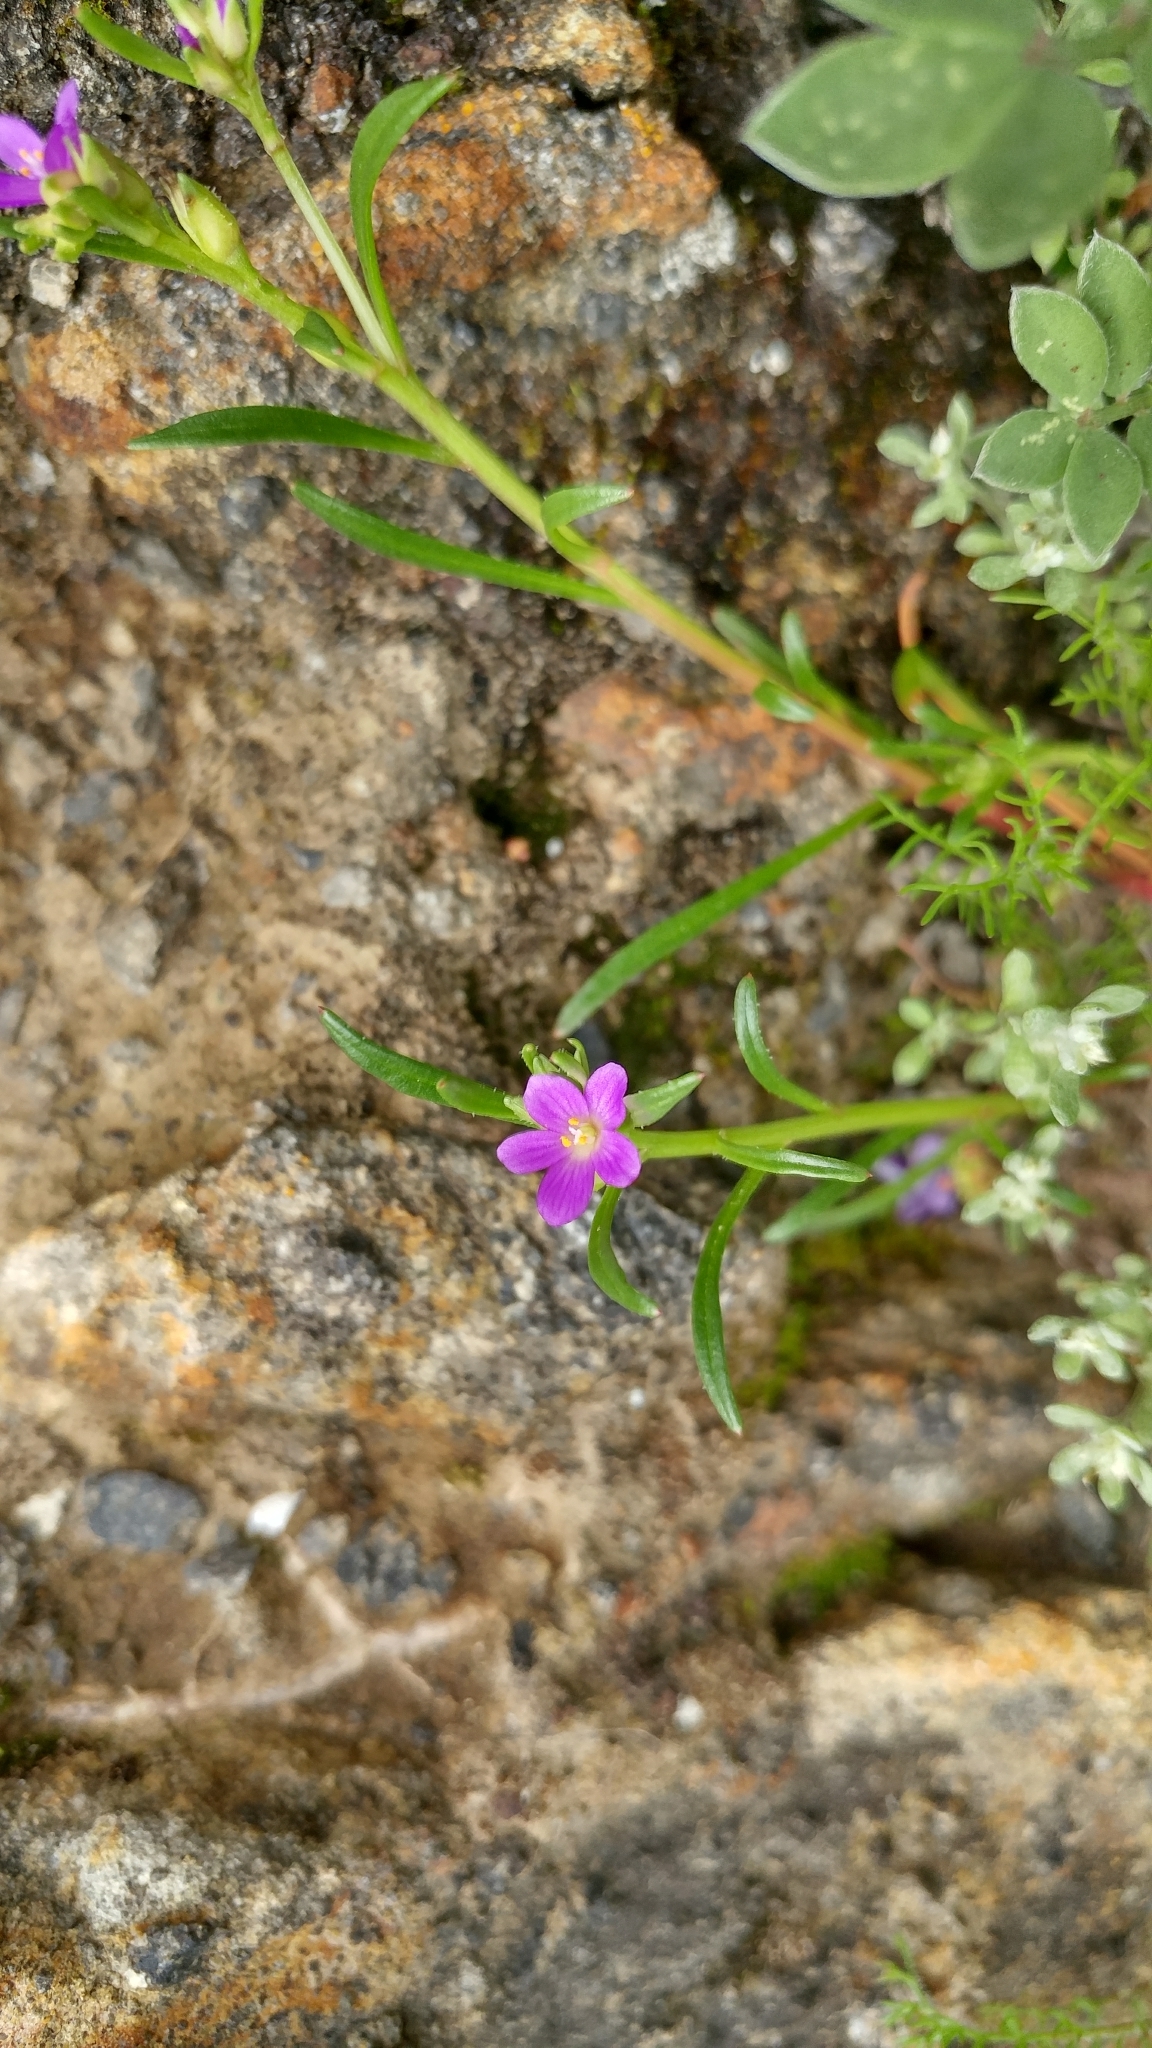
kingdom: Plantae
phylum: Tracheophyta
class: Magnoliopsida
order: Caryophyllales
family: Montiaceae
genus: Calandrinia
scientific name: Calandrinia menziesii
